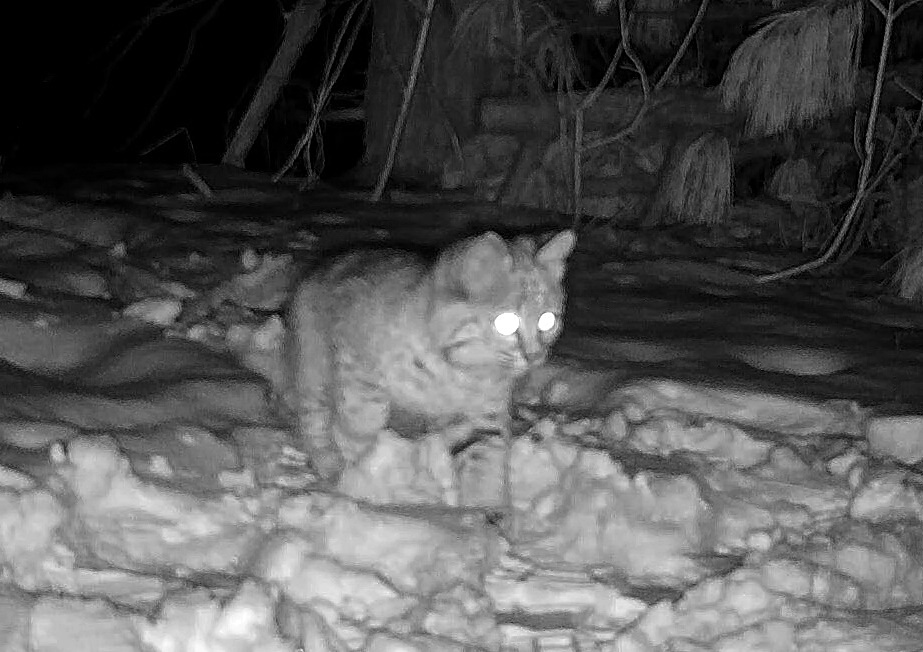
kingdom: Animalia
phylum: Chordata
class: Mammalia
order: Carnivora
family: Felidae
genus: Lynx
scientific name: Lynx rufus
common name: Bobcat
